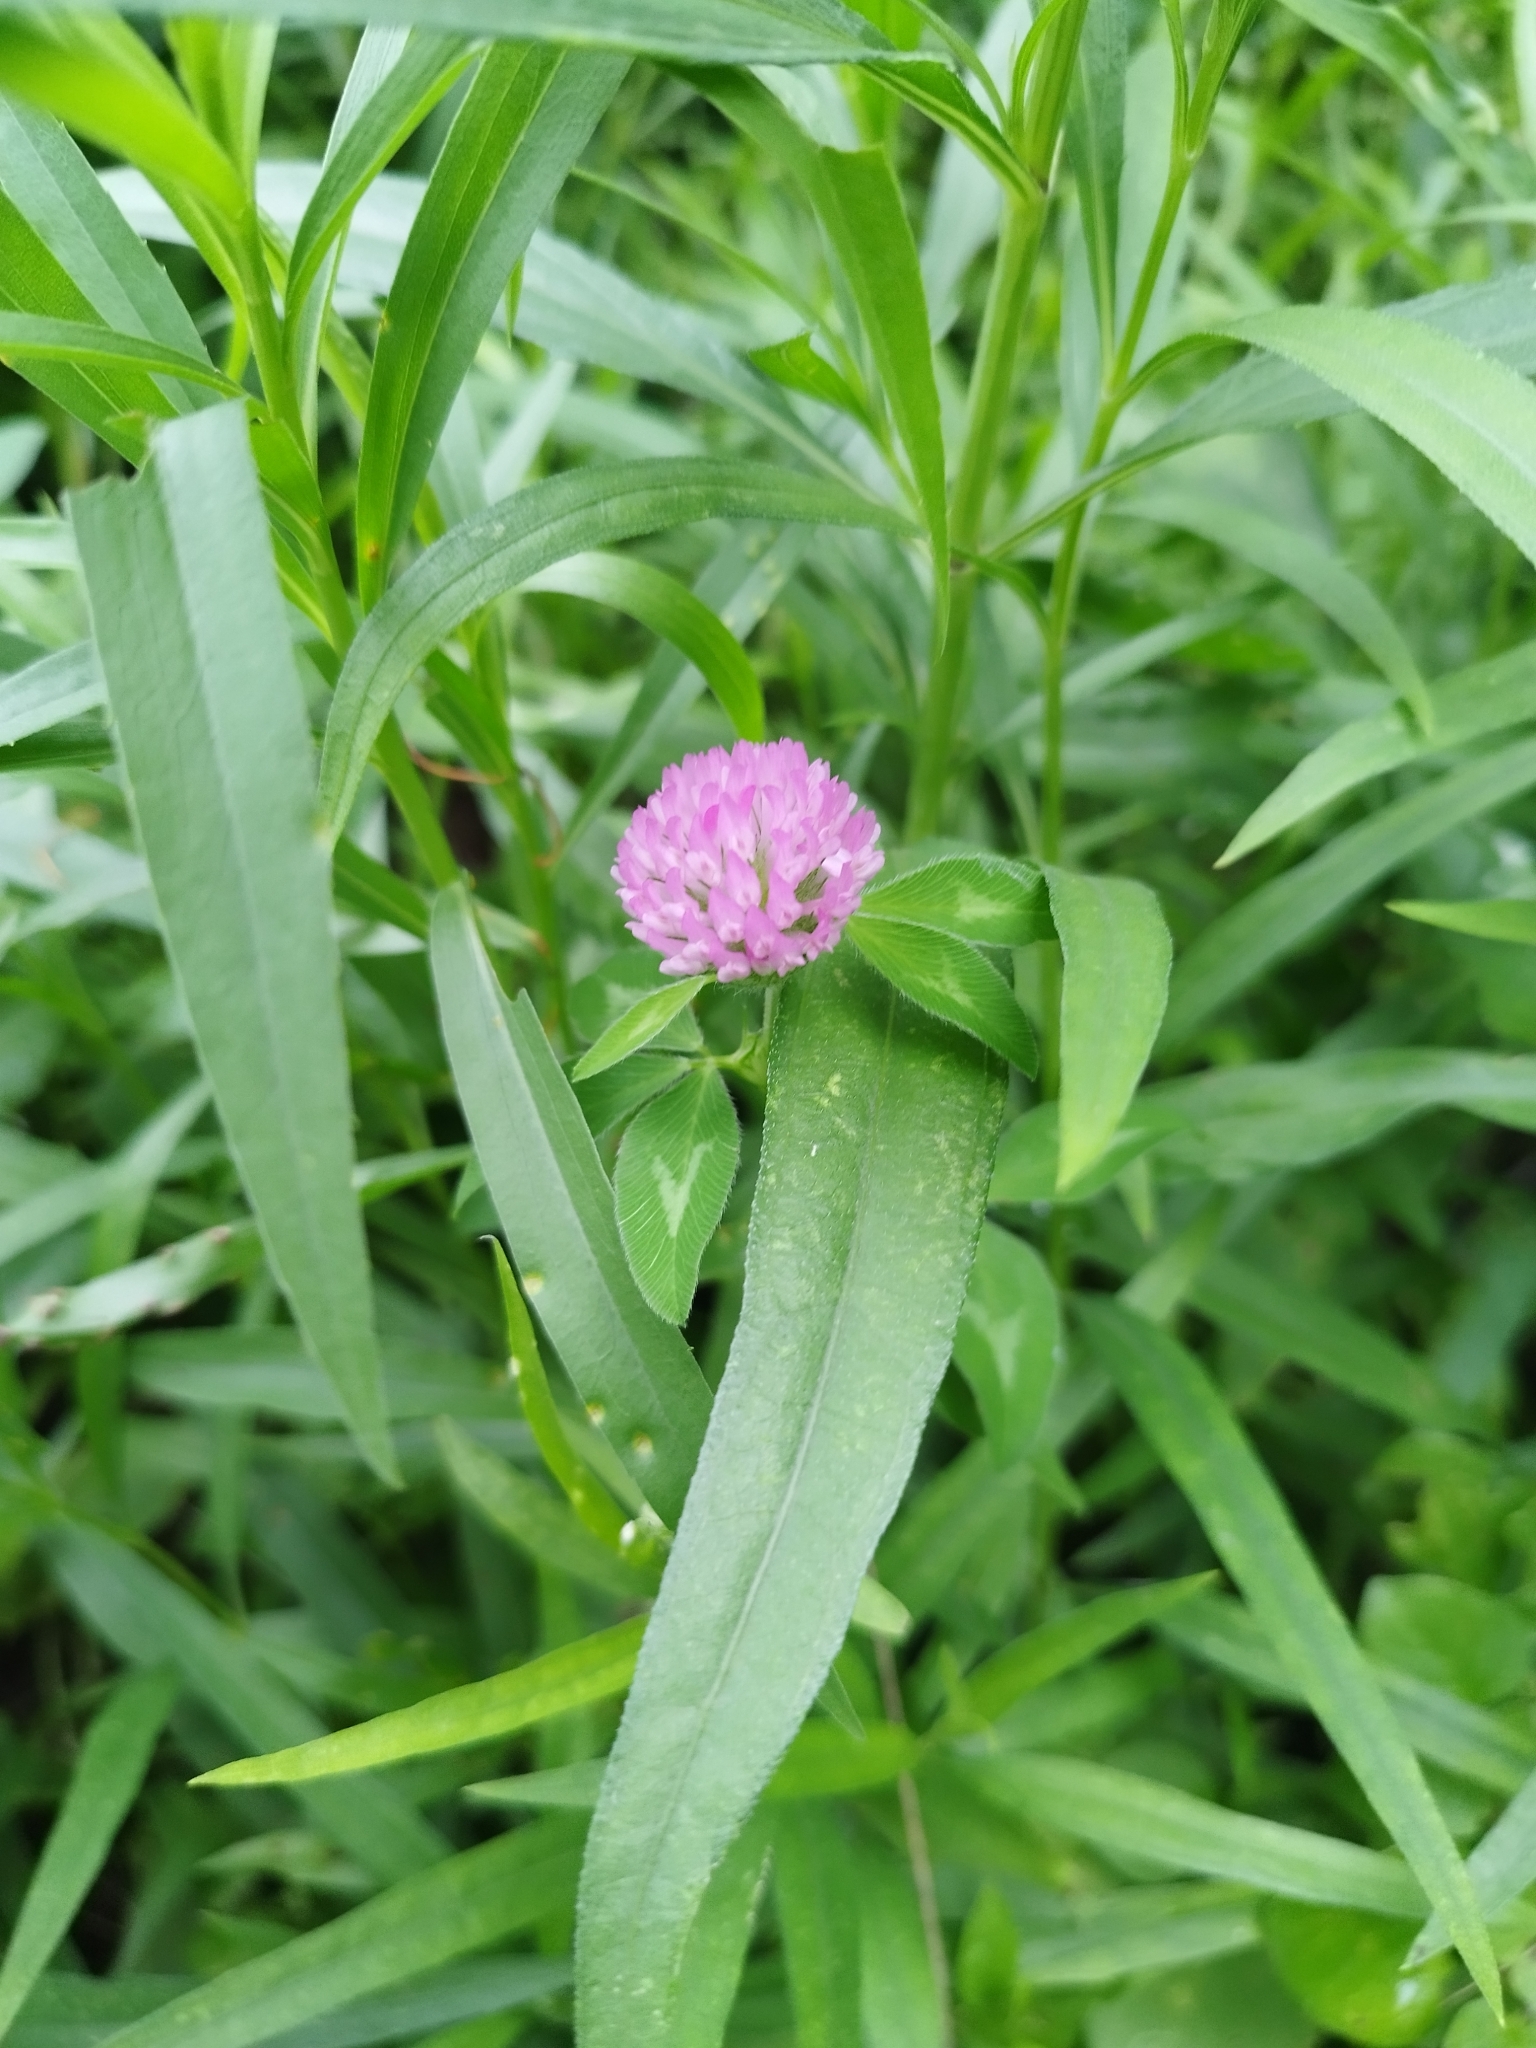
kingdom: Plantae
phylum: Tracheophyta
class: Magnoliopsida
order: Fabales
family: Fabaceae
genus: Trifolium
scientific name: Trifolium pratense
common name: Red clover
